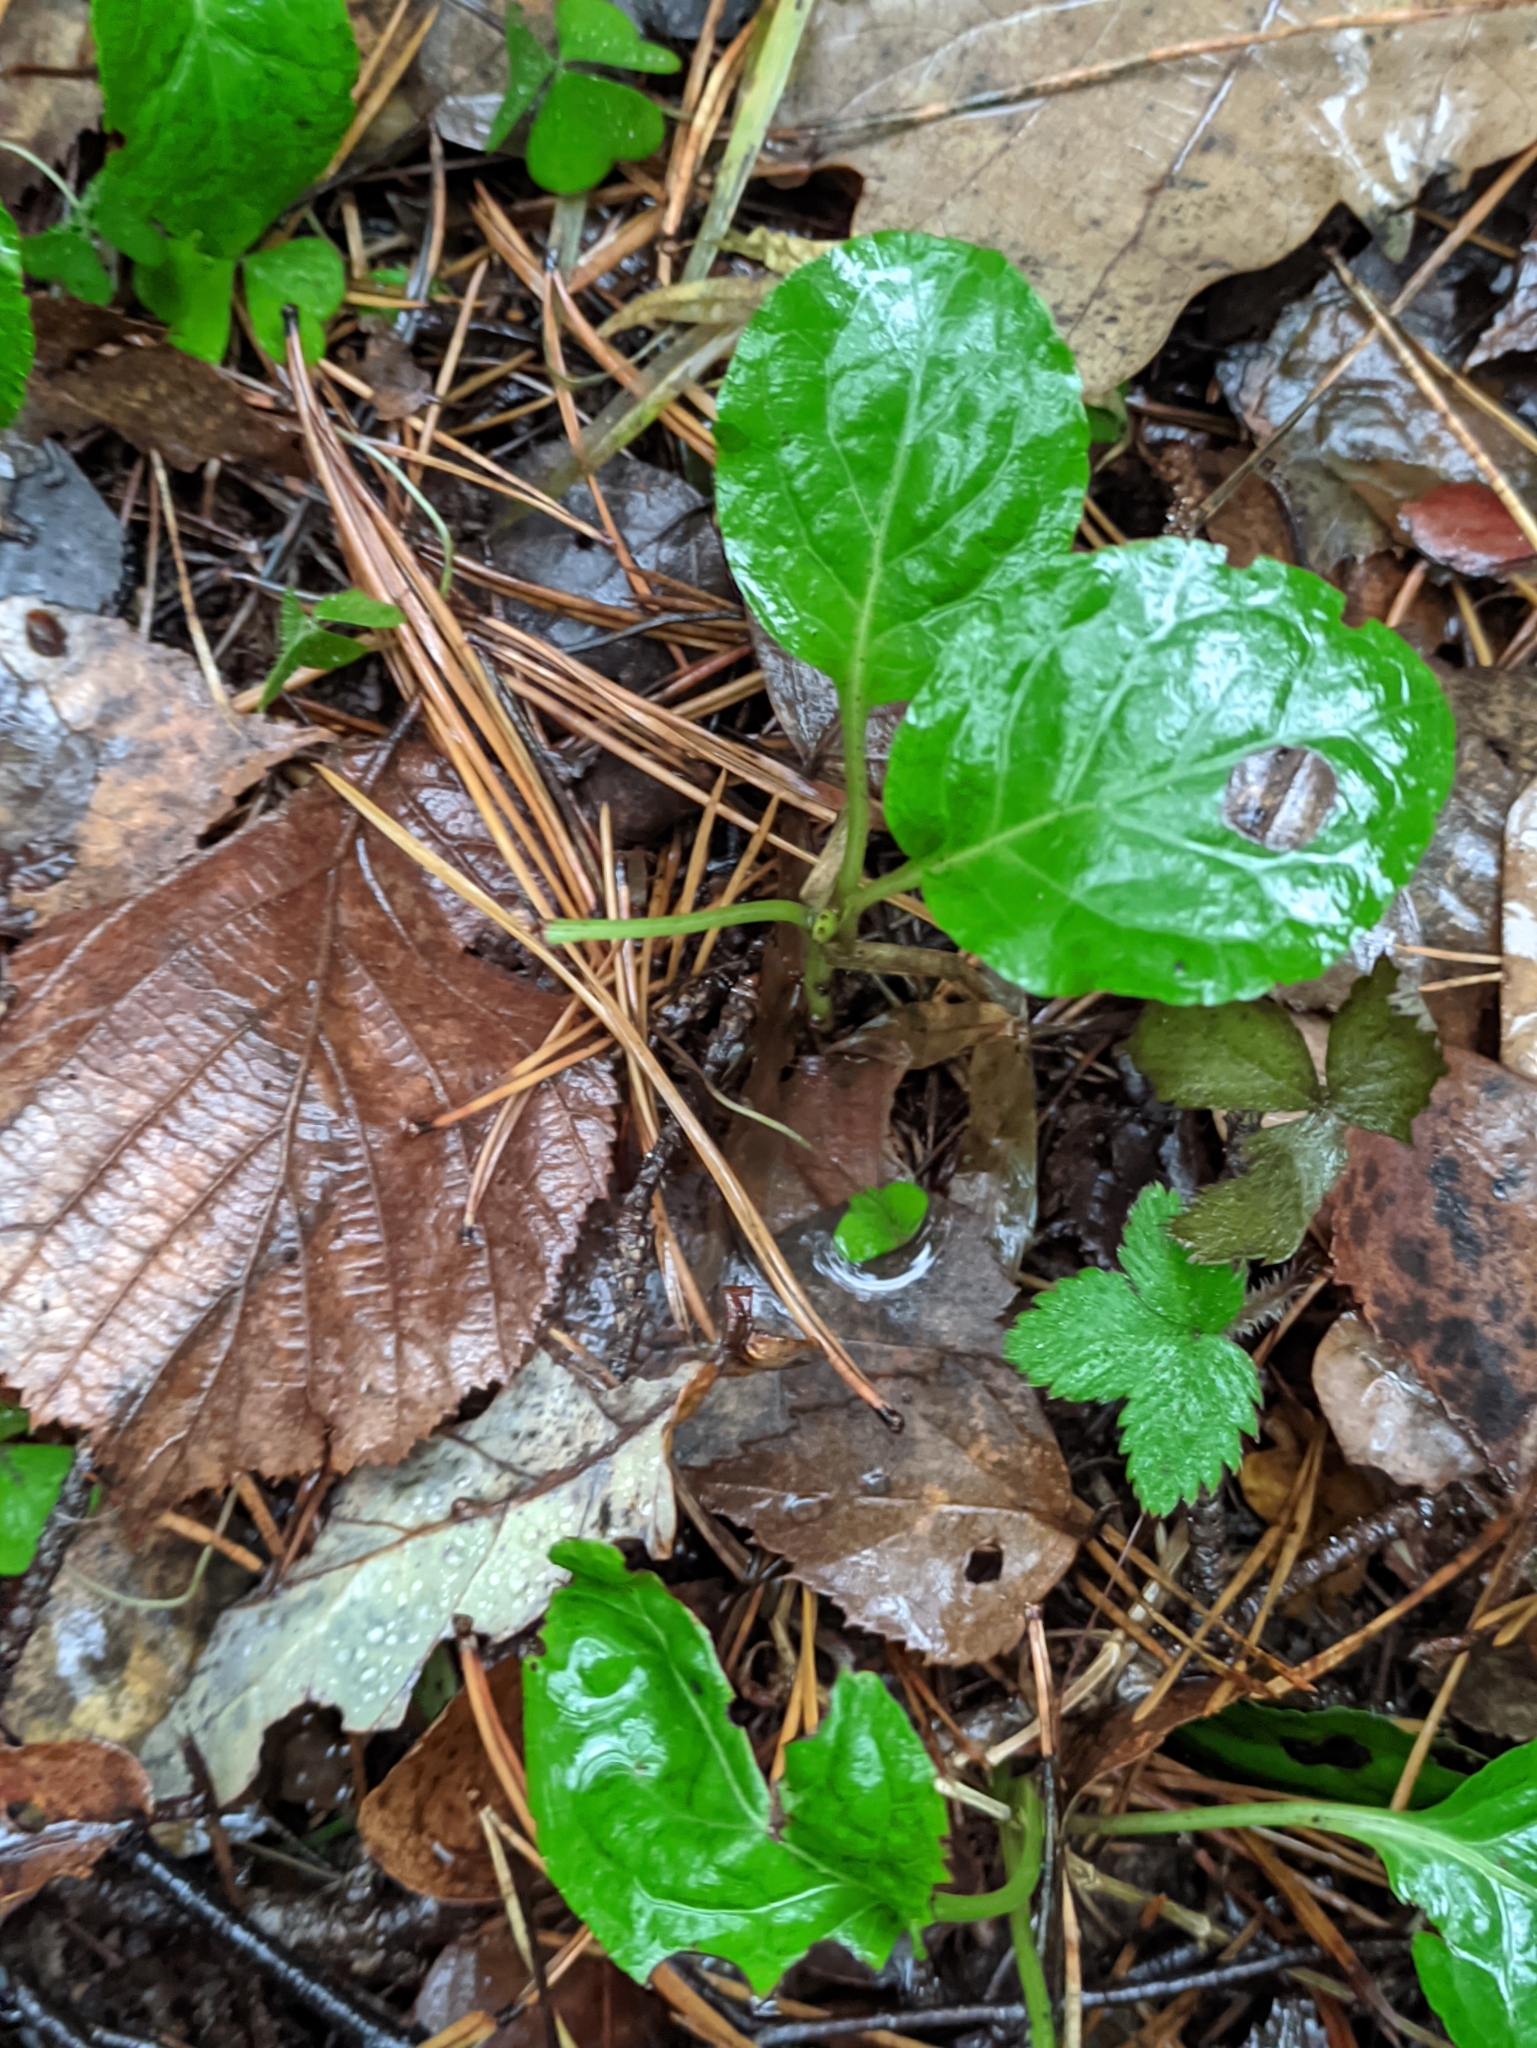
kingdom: Plantae
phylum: Tracheophyta
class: Magnoliopsida
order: Ericales
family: Ericaceae
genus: Pyrola
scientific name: Pyrola minor
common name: Common wintergreen
